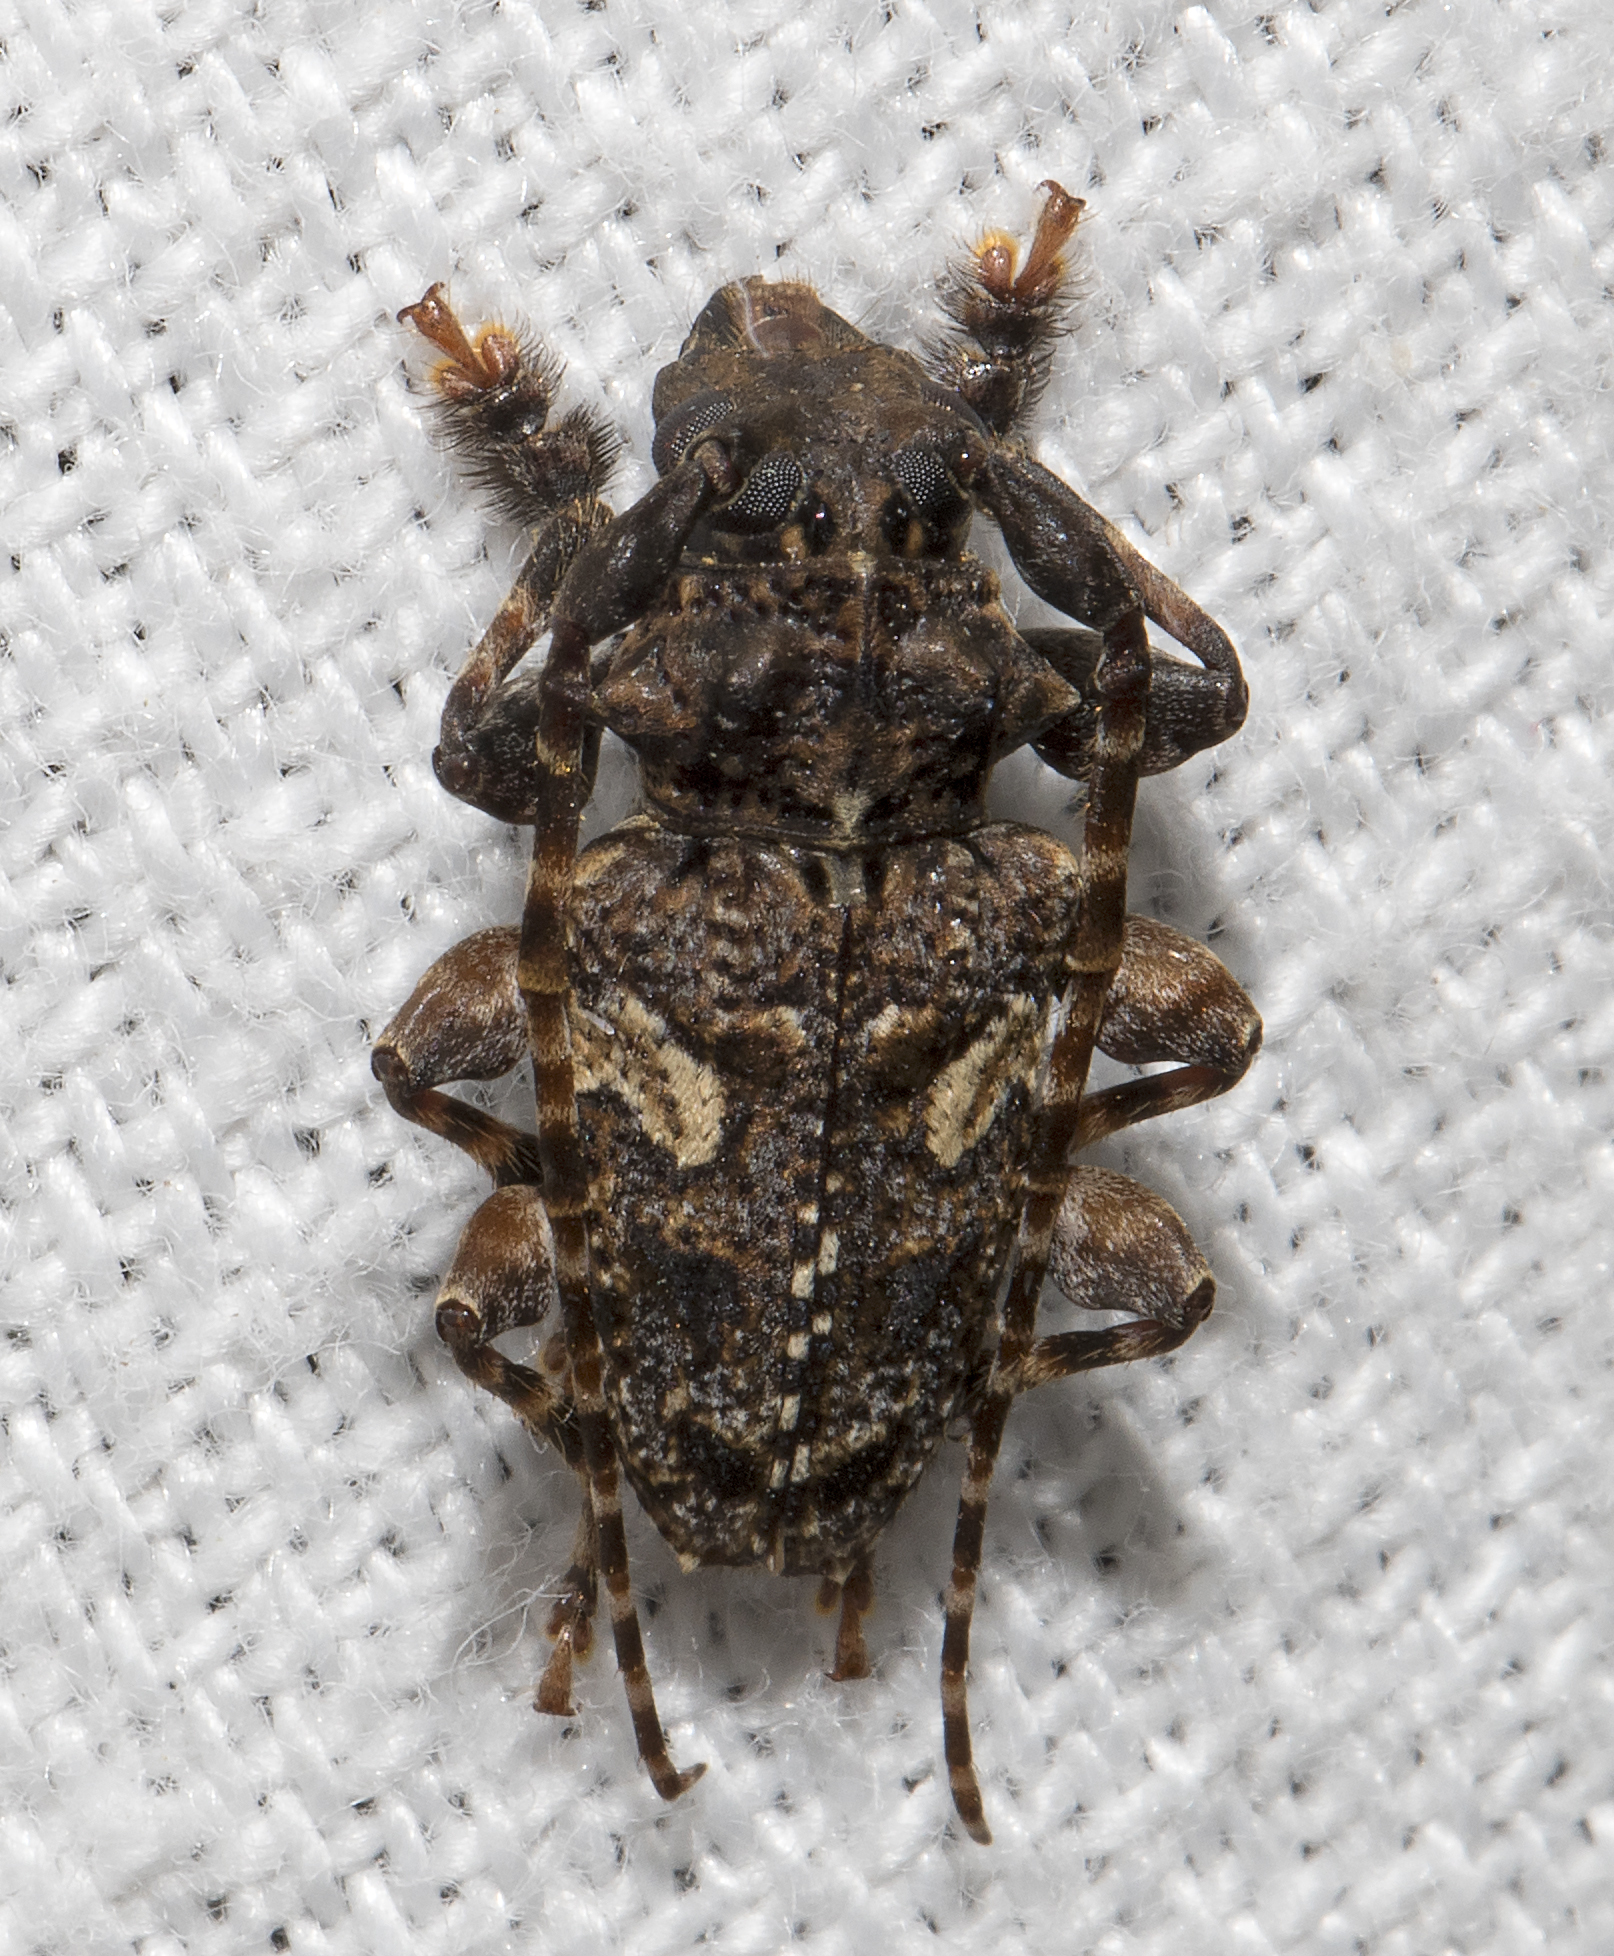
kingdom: Animalia
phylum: Arthropoda
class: Insecta
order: Coleoptera
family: Cerambycidae
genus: Psapharochrus
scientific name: Psapharochrus circumflexus
